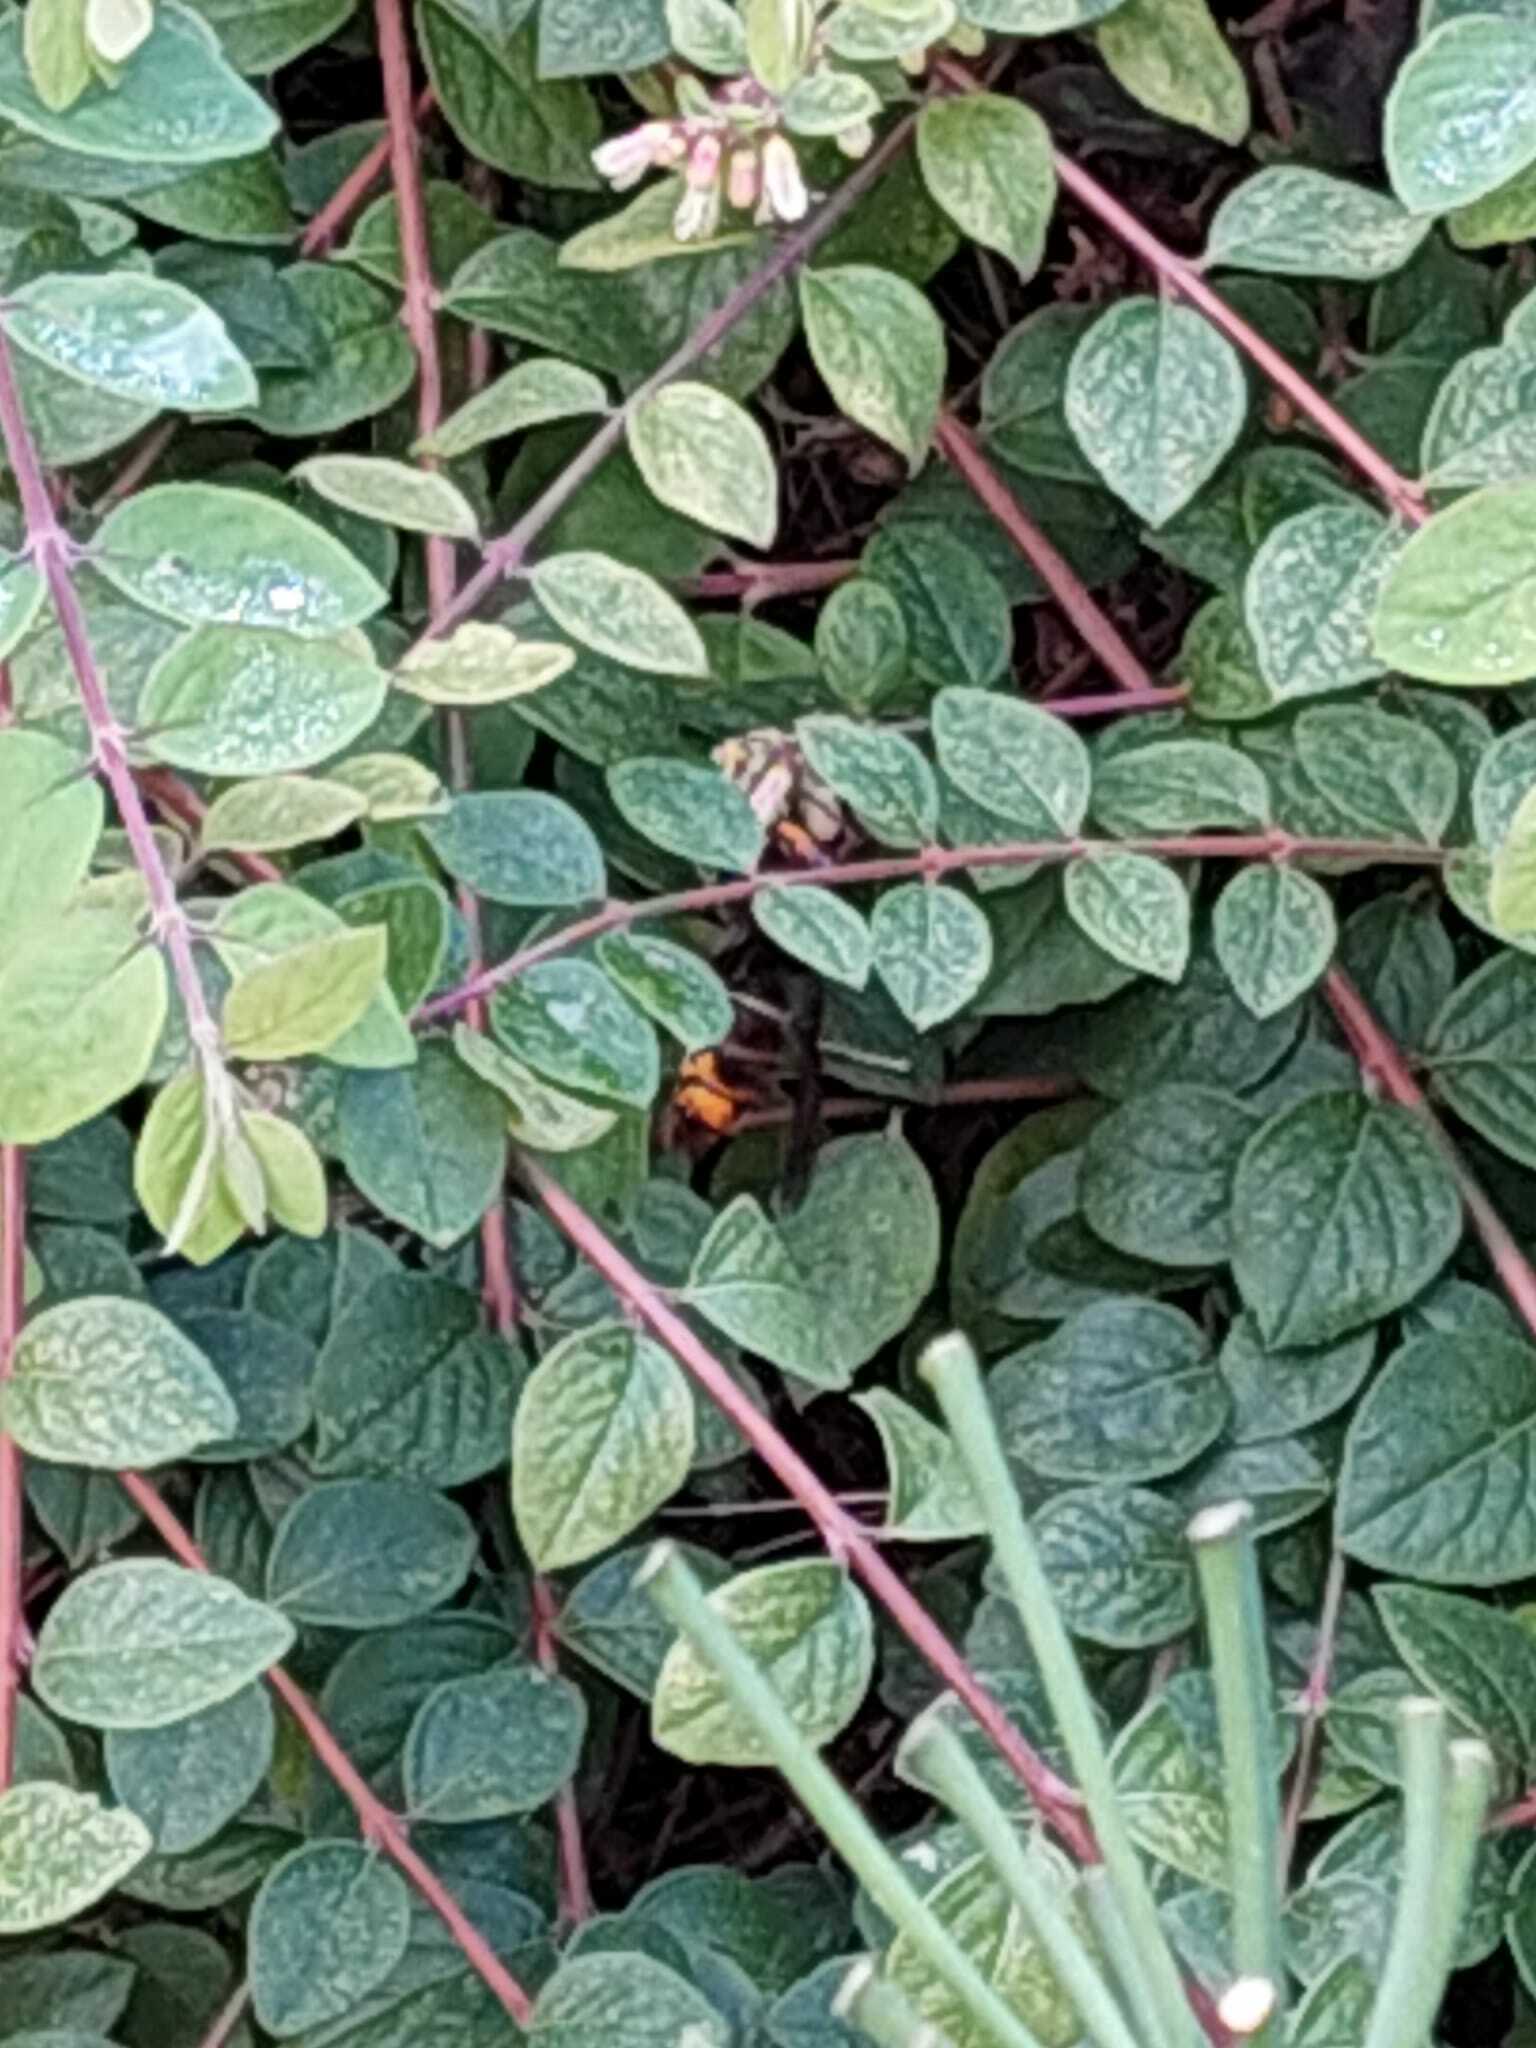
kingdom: Animalia
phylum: Arthropoda
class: Insecta
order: Hymenoptera
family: Vespidae
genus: Vespa
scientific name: Vespa velutina
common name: Asian hornet
